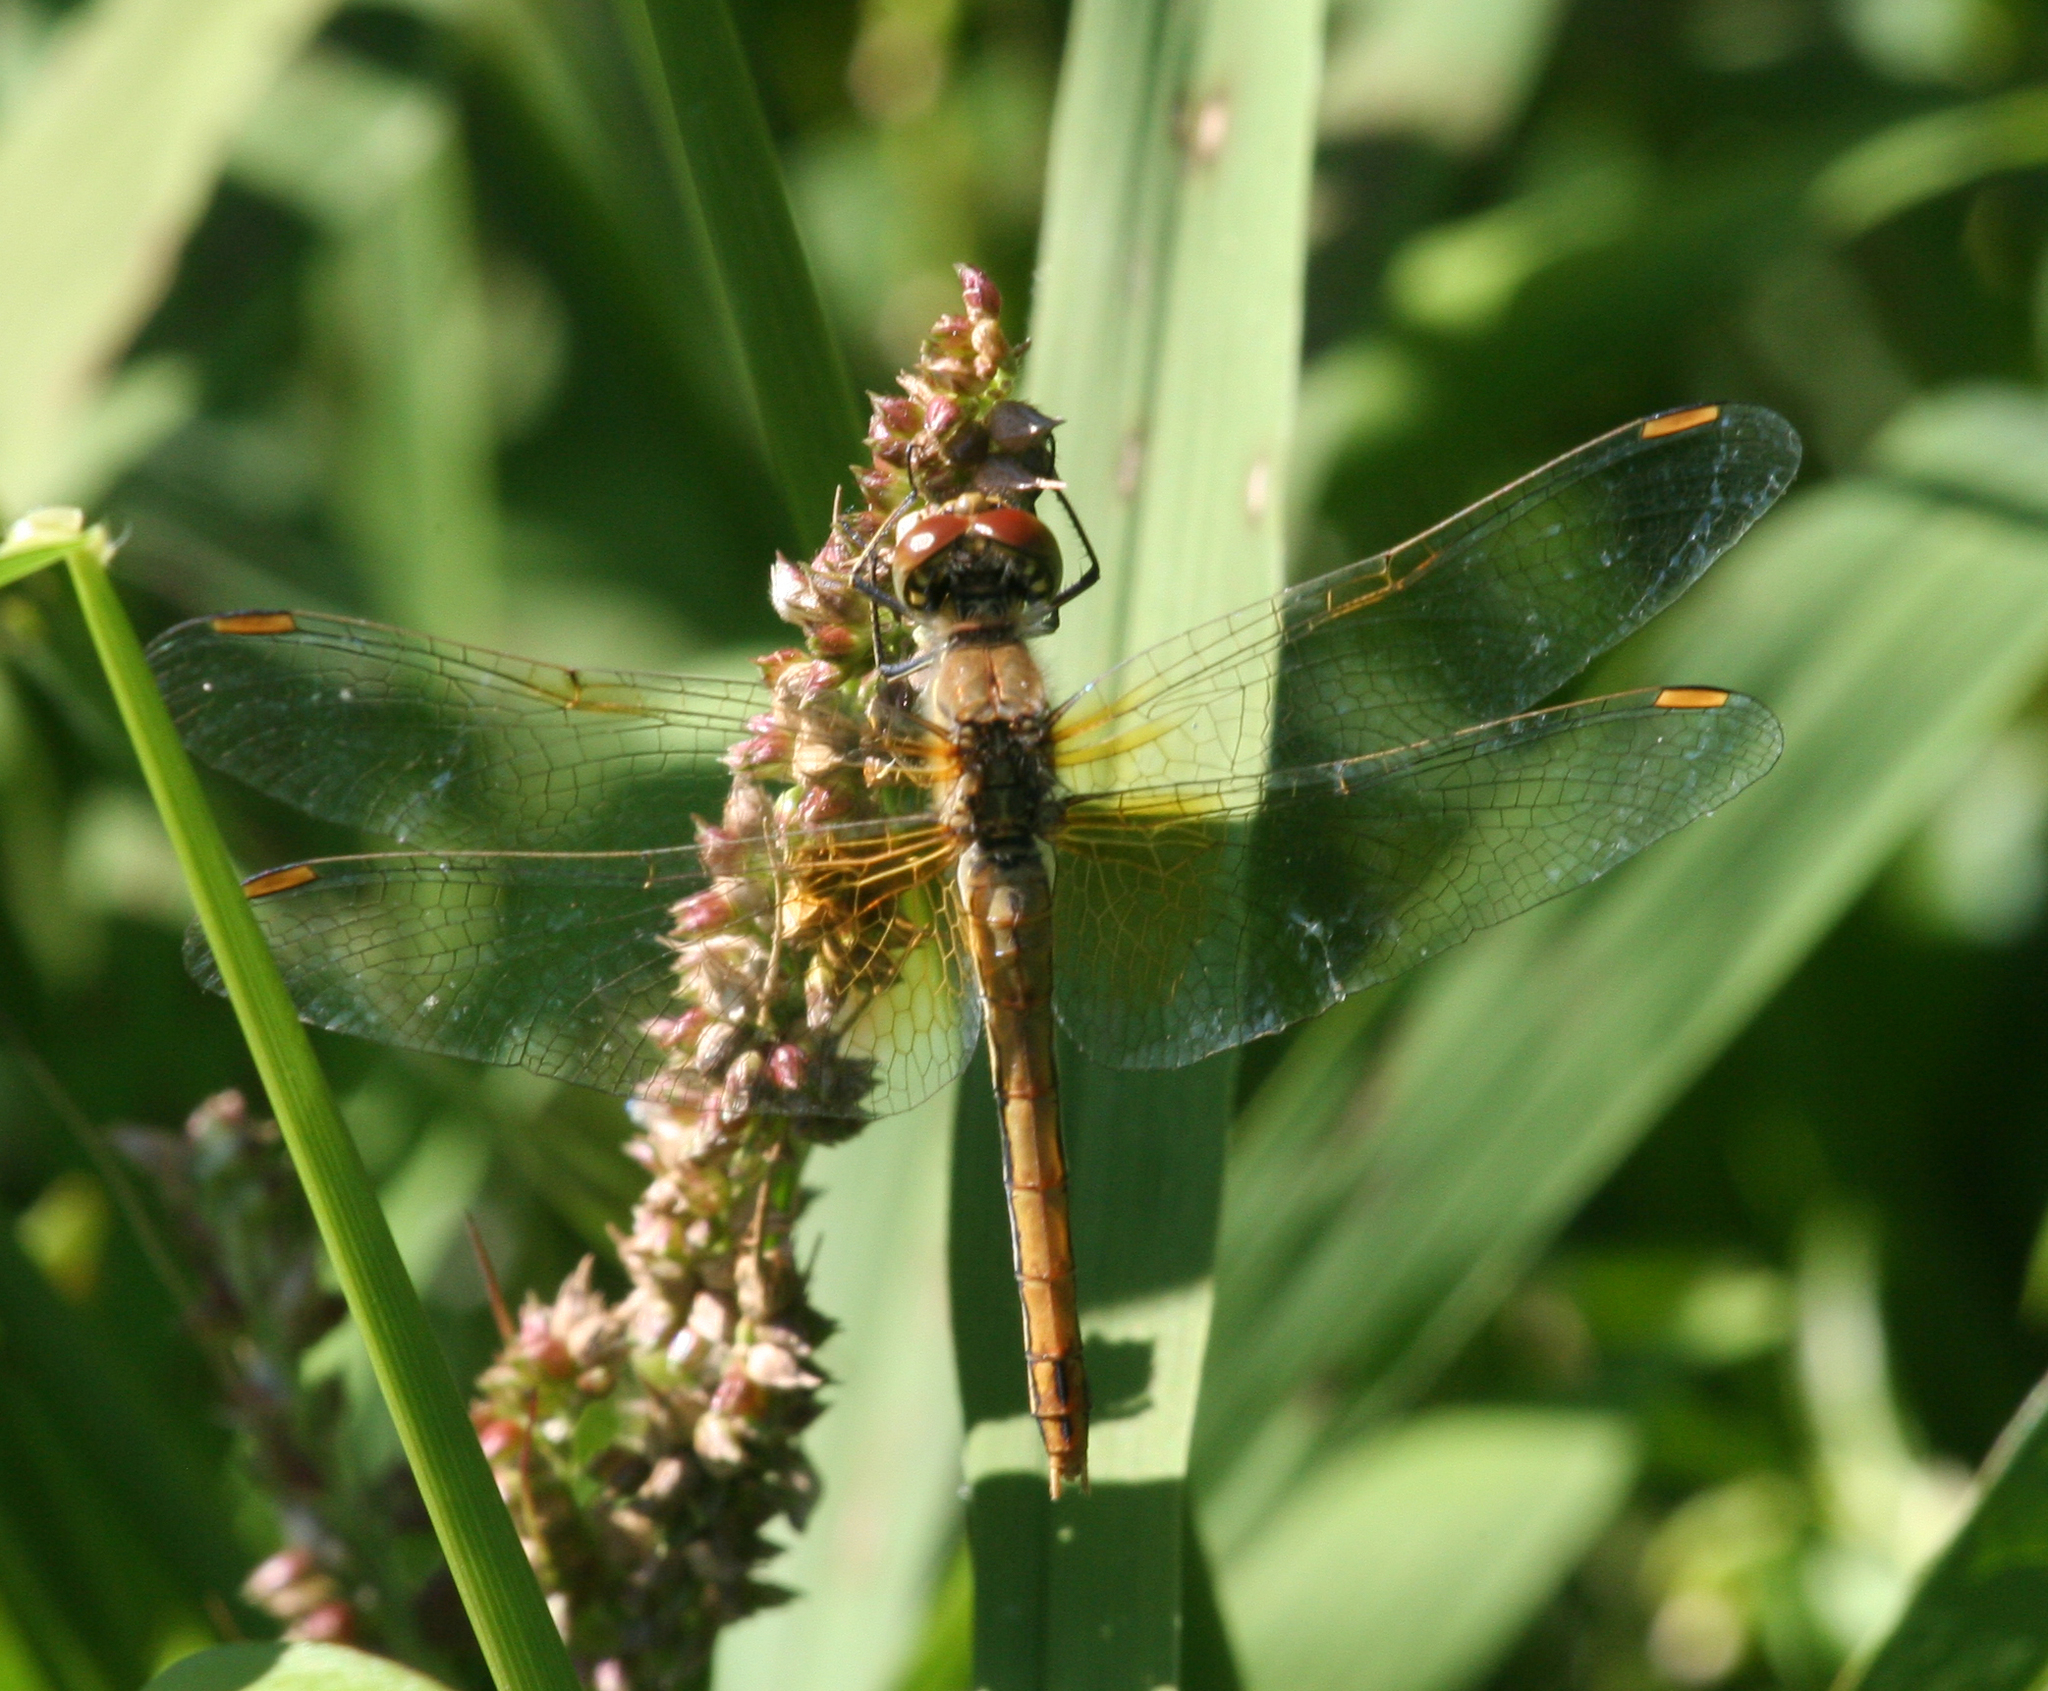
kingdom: Animalia
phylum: Arthropoda
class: Insecta
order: Odonata
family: Libellulidae
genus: Sympetrum
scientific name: Sympetrum flaveolum
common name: Yellow-winged darter
